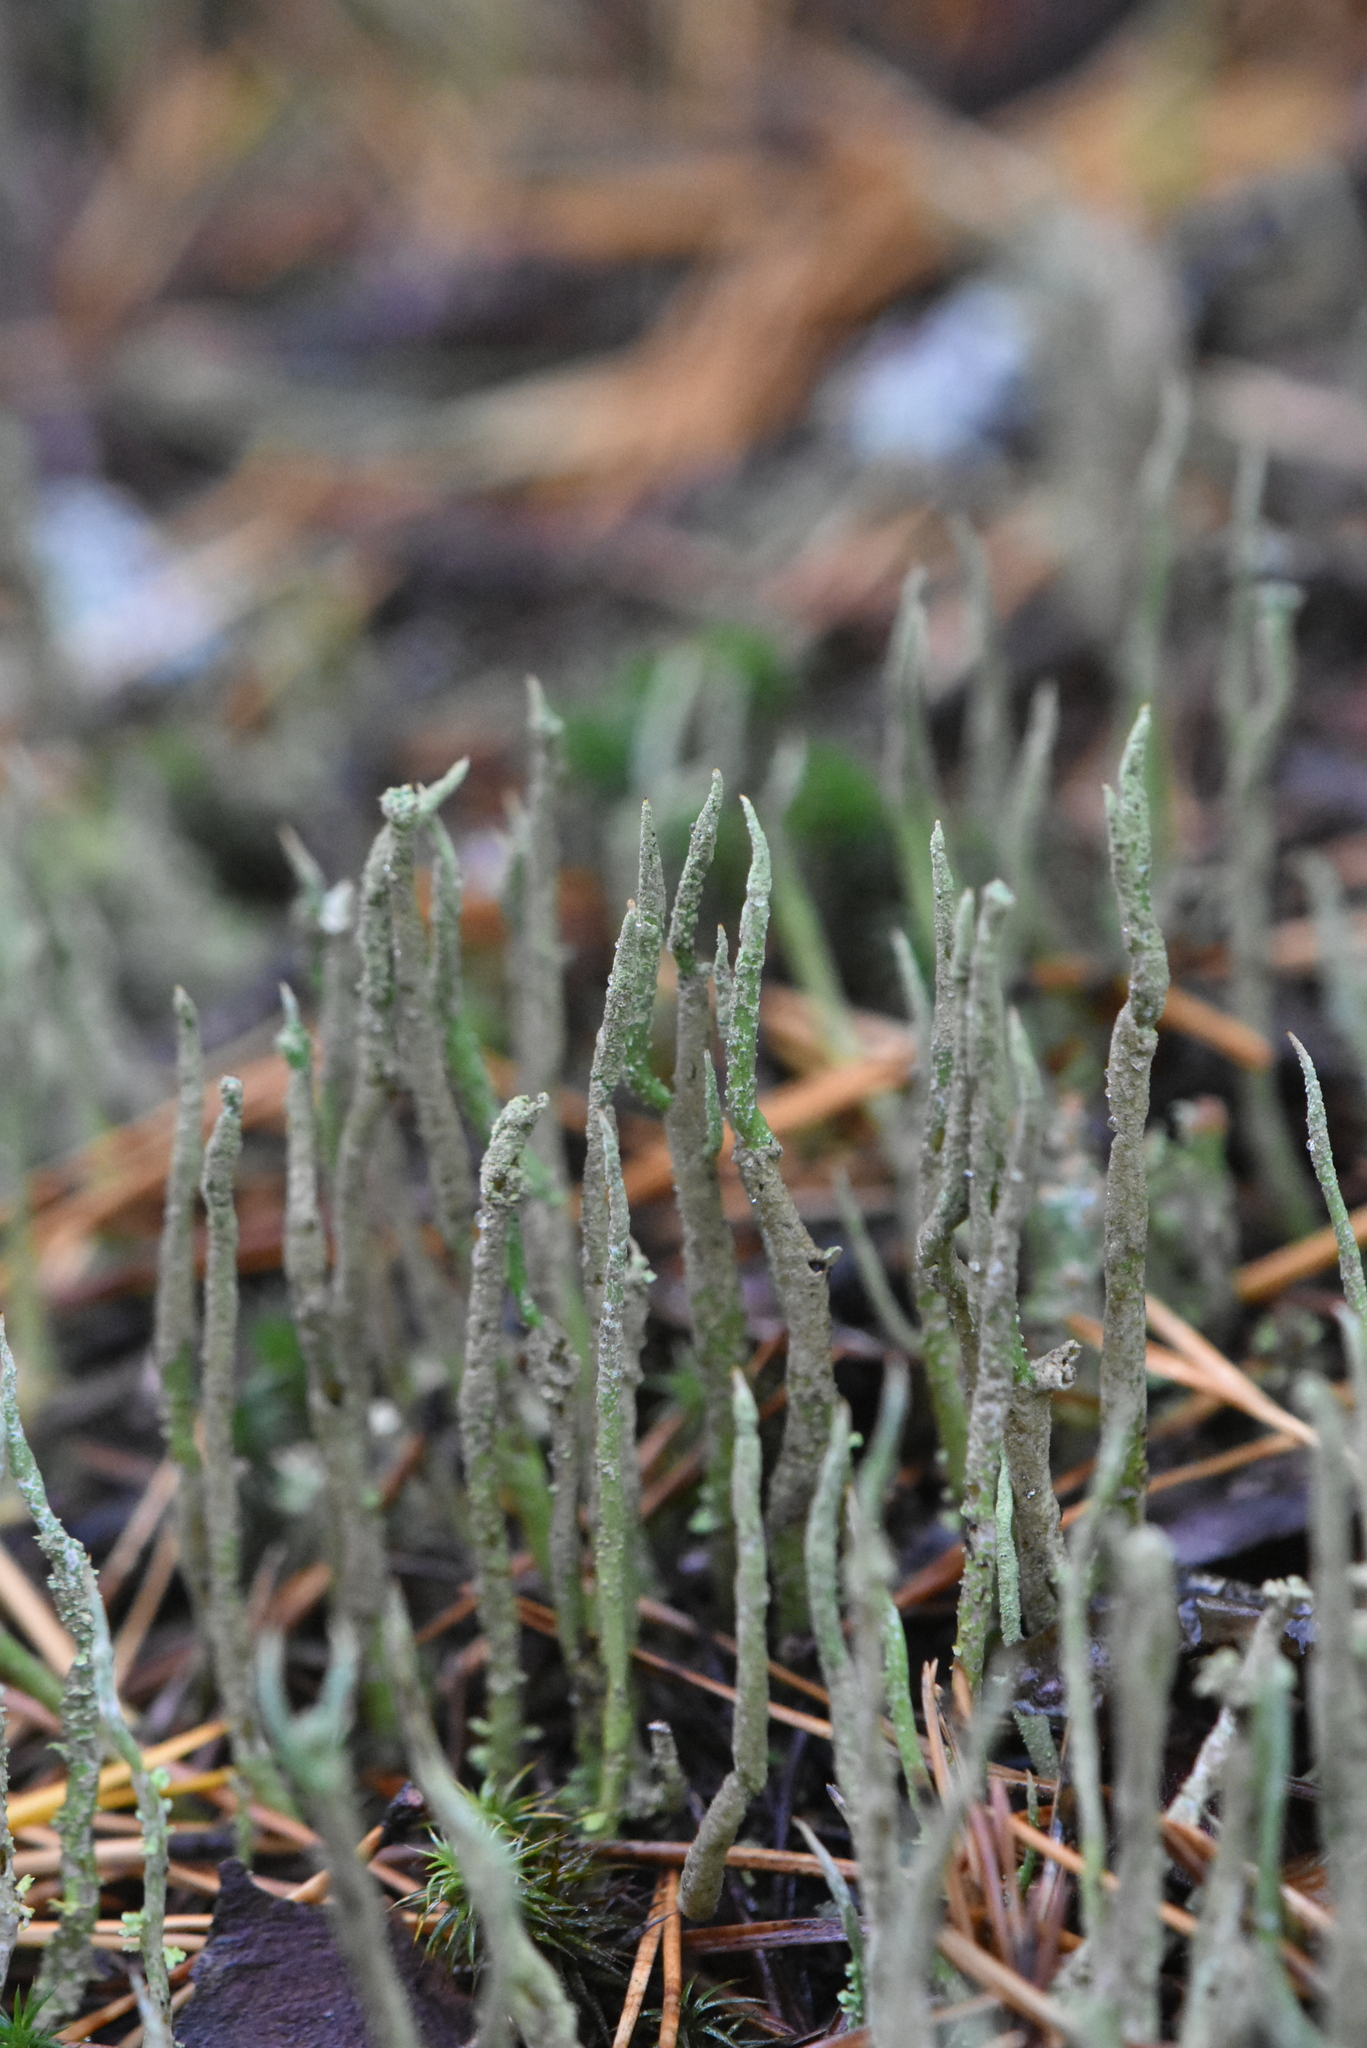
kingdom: Fungi
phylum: Ascomycota
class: Lecanoromycetes
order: Lecanorales
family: Cladoniaceae
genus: Cladonia
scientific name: Cladonia cornuta
